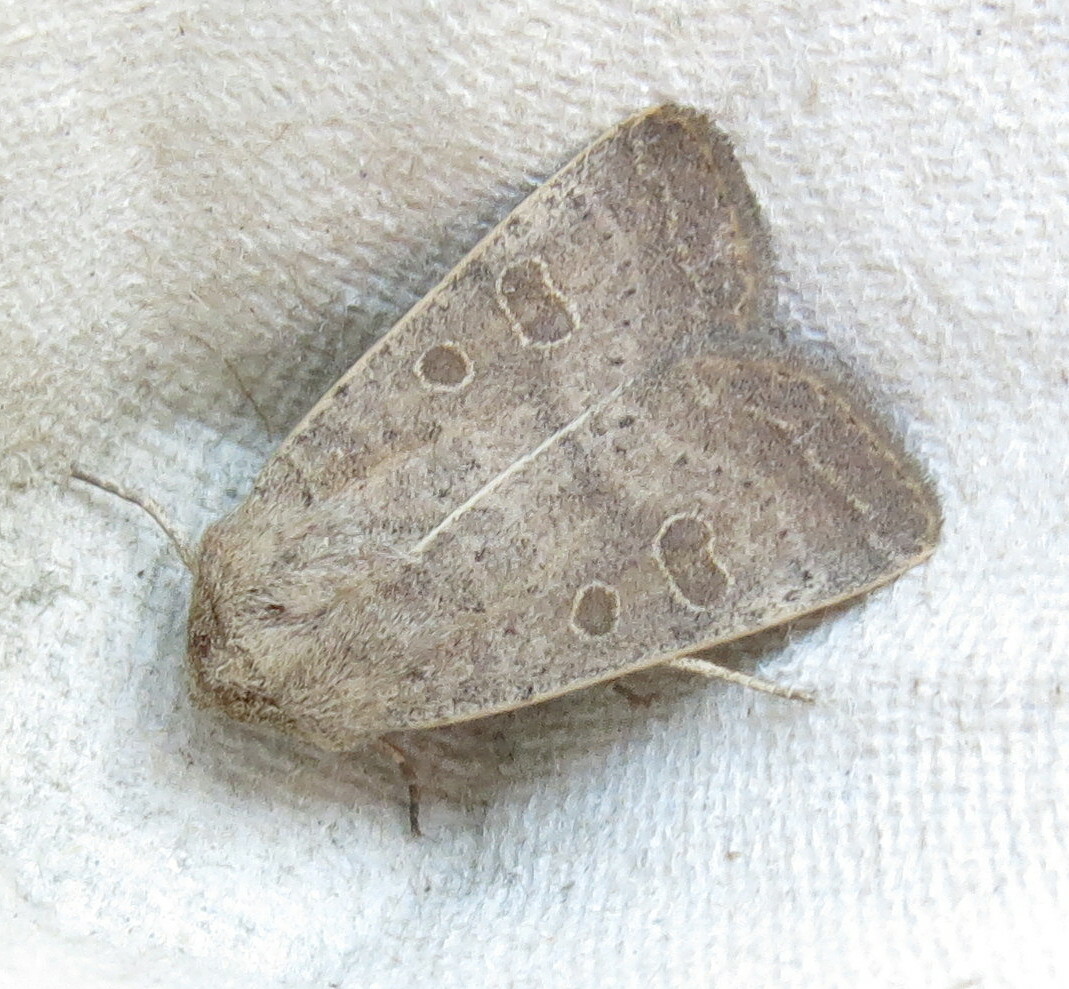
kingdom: Animalia
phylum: Arthropoda
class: Insecta
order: Lepidoptera
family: Noctuidae
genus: Hoplodrina
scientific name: Hoplodrina ambigua
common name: Vine's rustic
